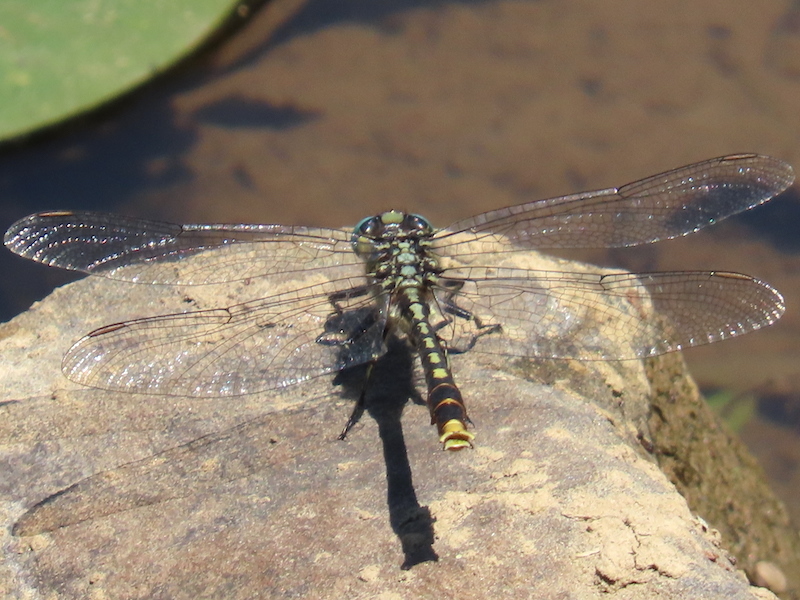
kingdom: Animalia
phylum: Arthropoda
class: Insecta
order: Odonata
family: Gomphidae
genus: Arigomphus
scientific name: Arigomphus villosipes
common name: Unicorn clubtail
